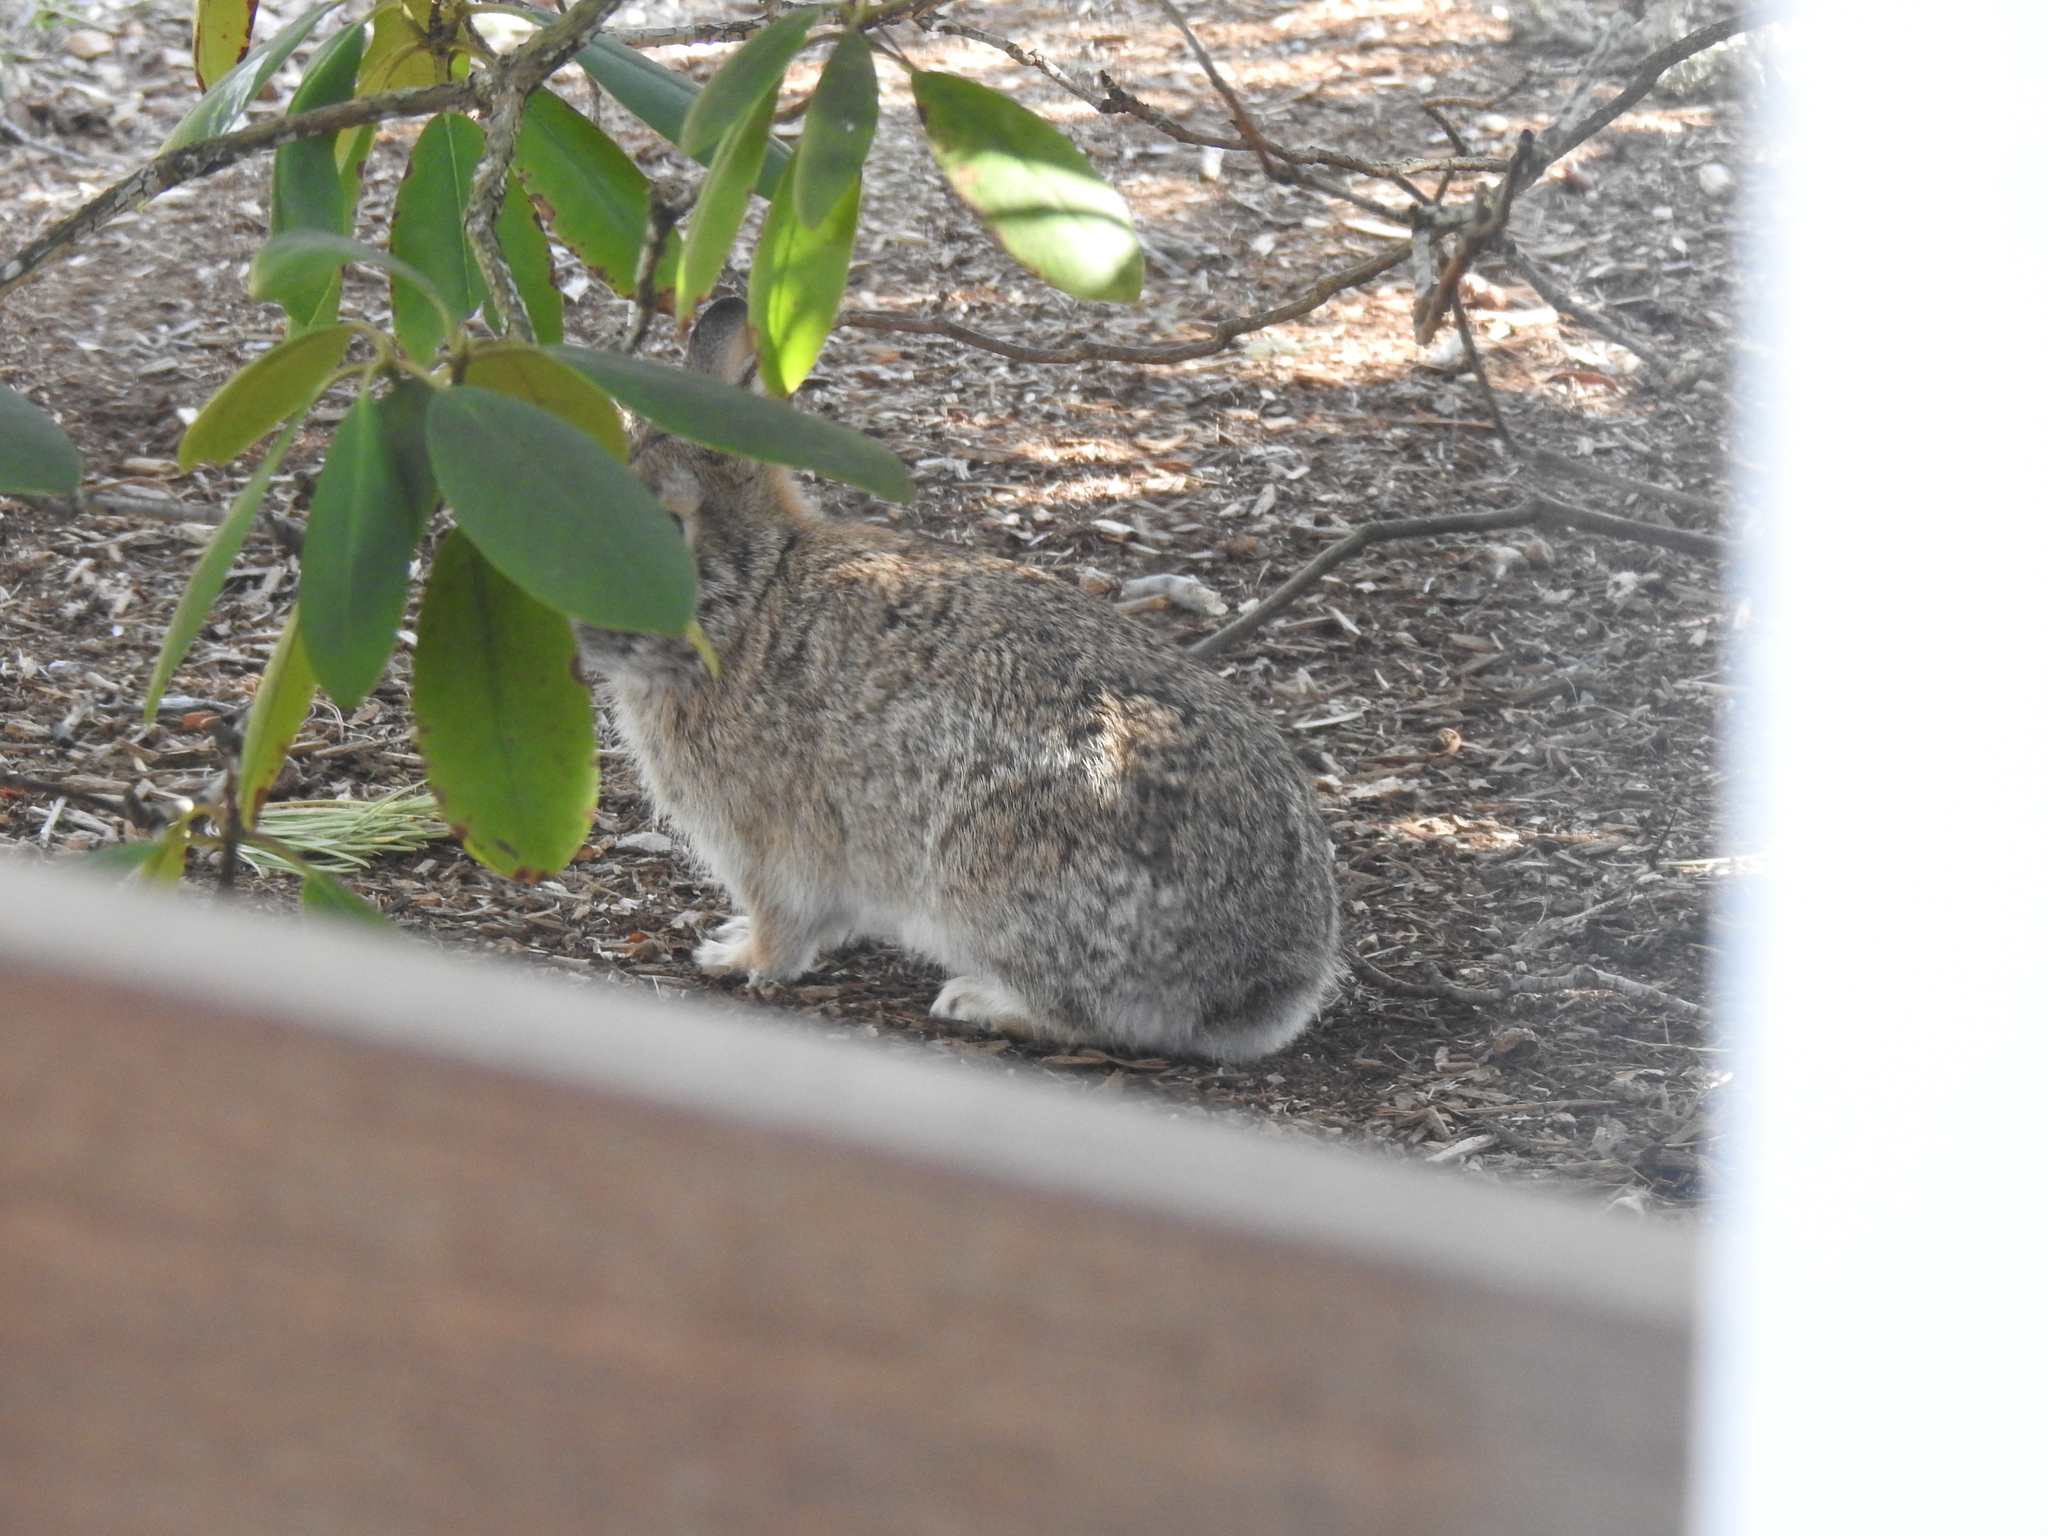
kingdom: Animalia
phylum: Chordata
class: Mammalia
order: Lagomorpha
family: Leporidae
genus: Sylvilagus
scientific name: Sylvilagus floridanus
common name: Eastern cottontail
